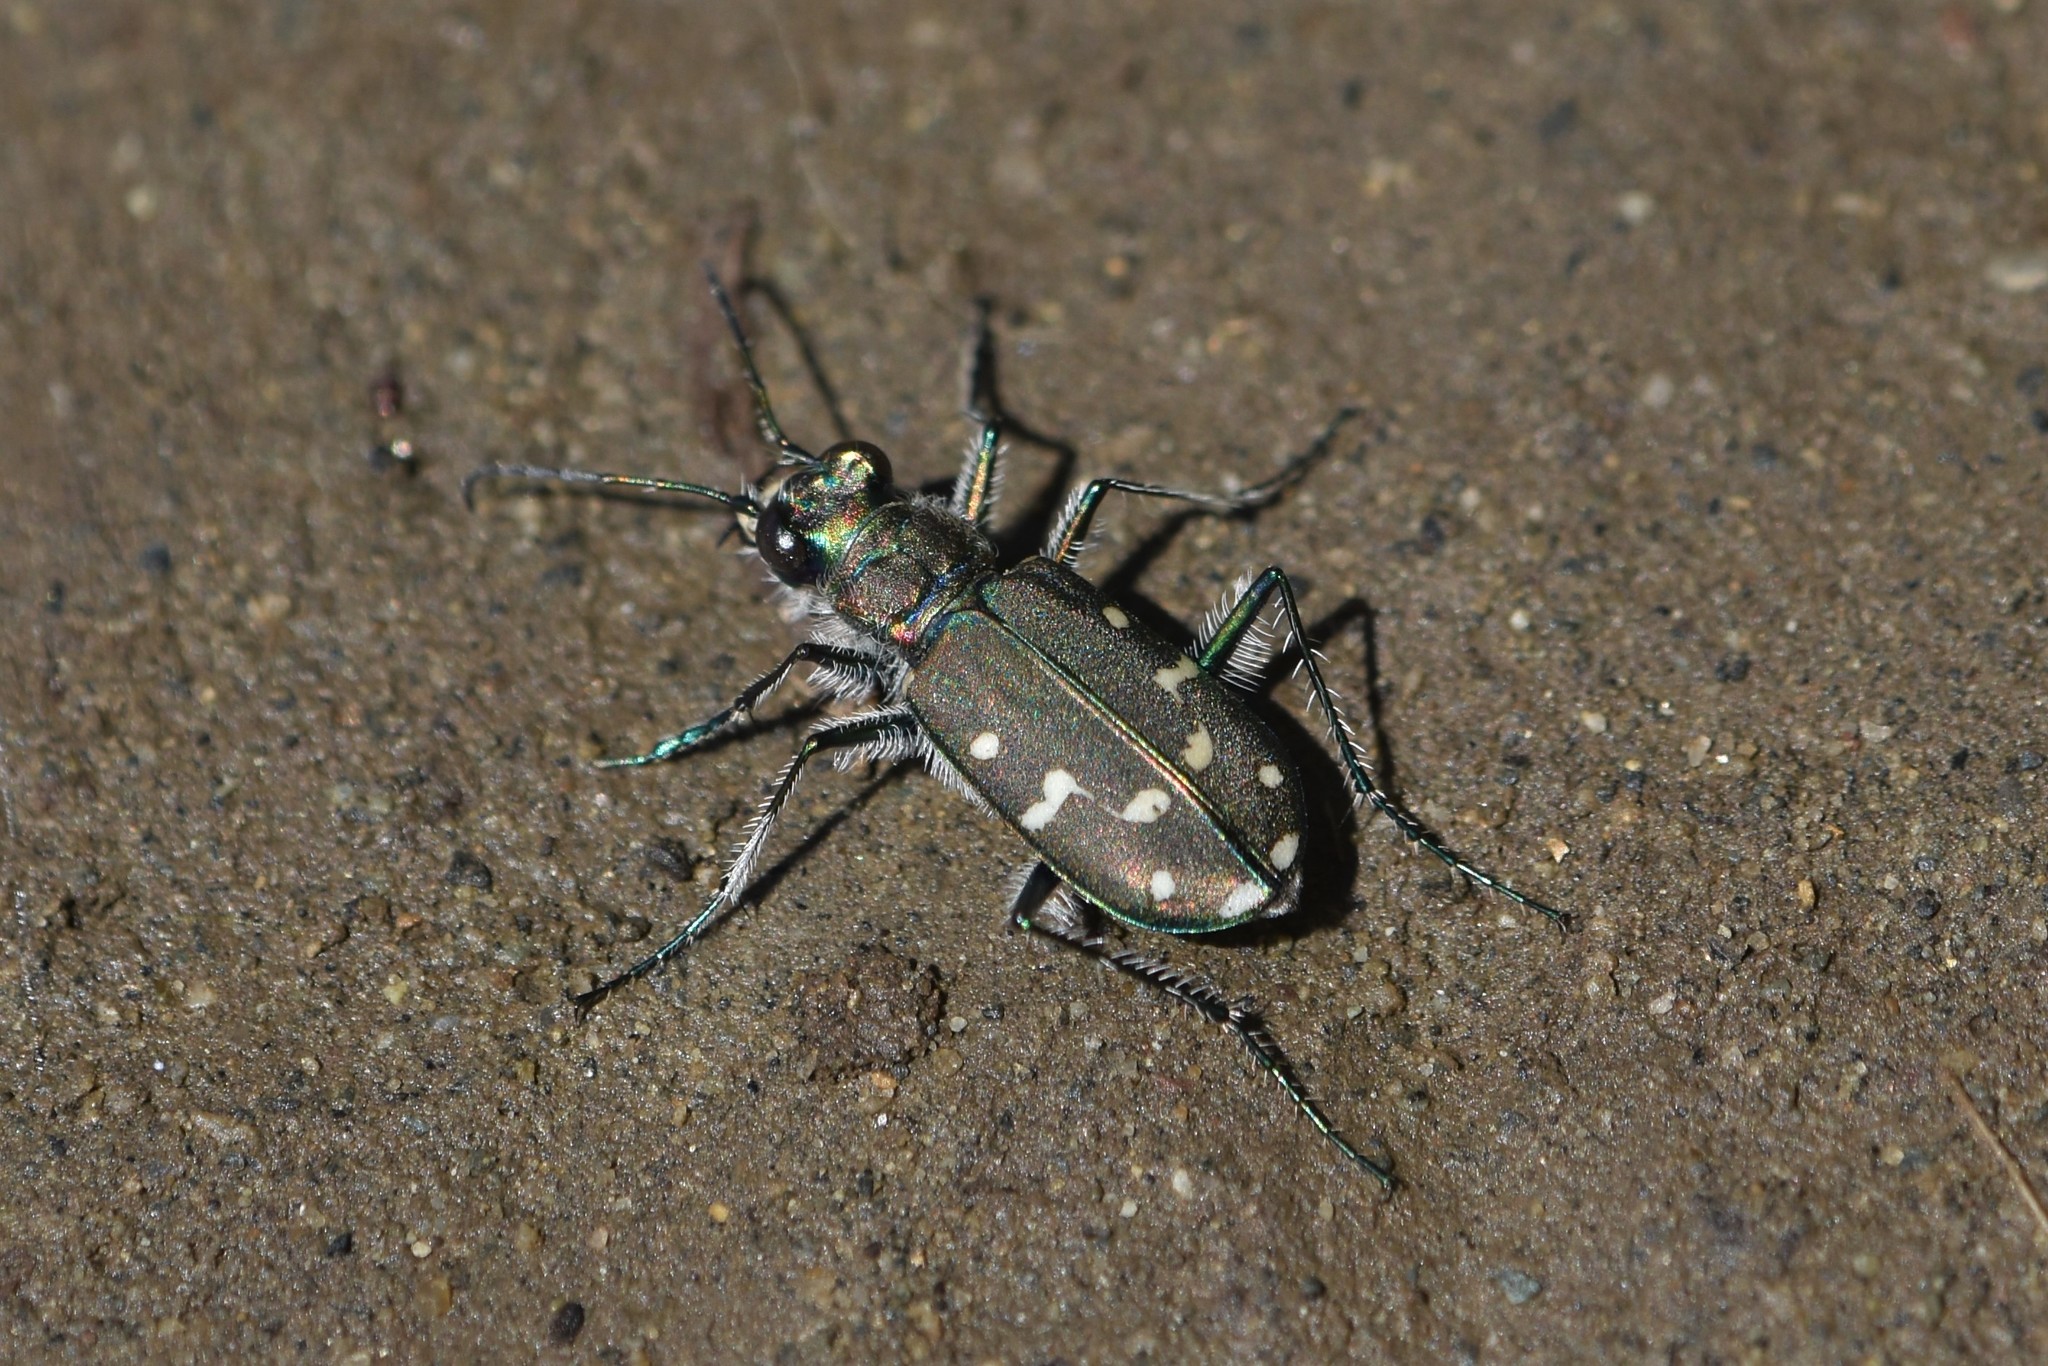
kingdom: Animalia
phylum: Arthropoda
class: Insecta
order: Coleoptera
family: Carabidae
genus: Cicindela
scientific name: Cicindela oregona
